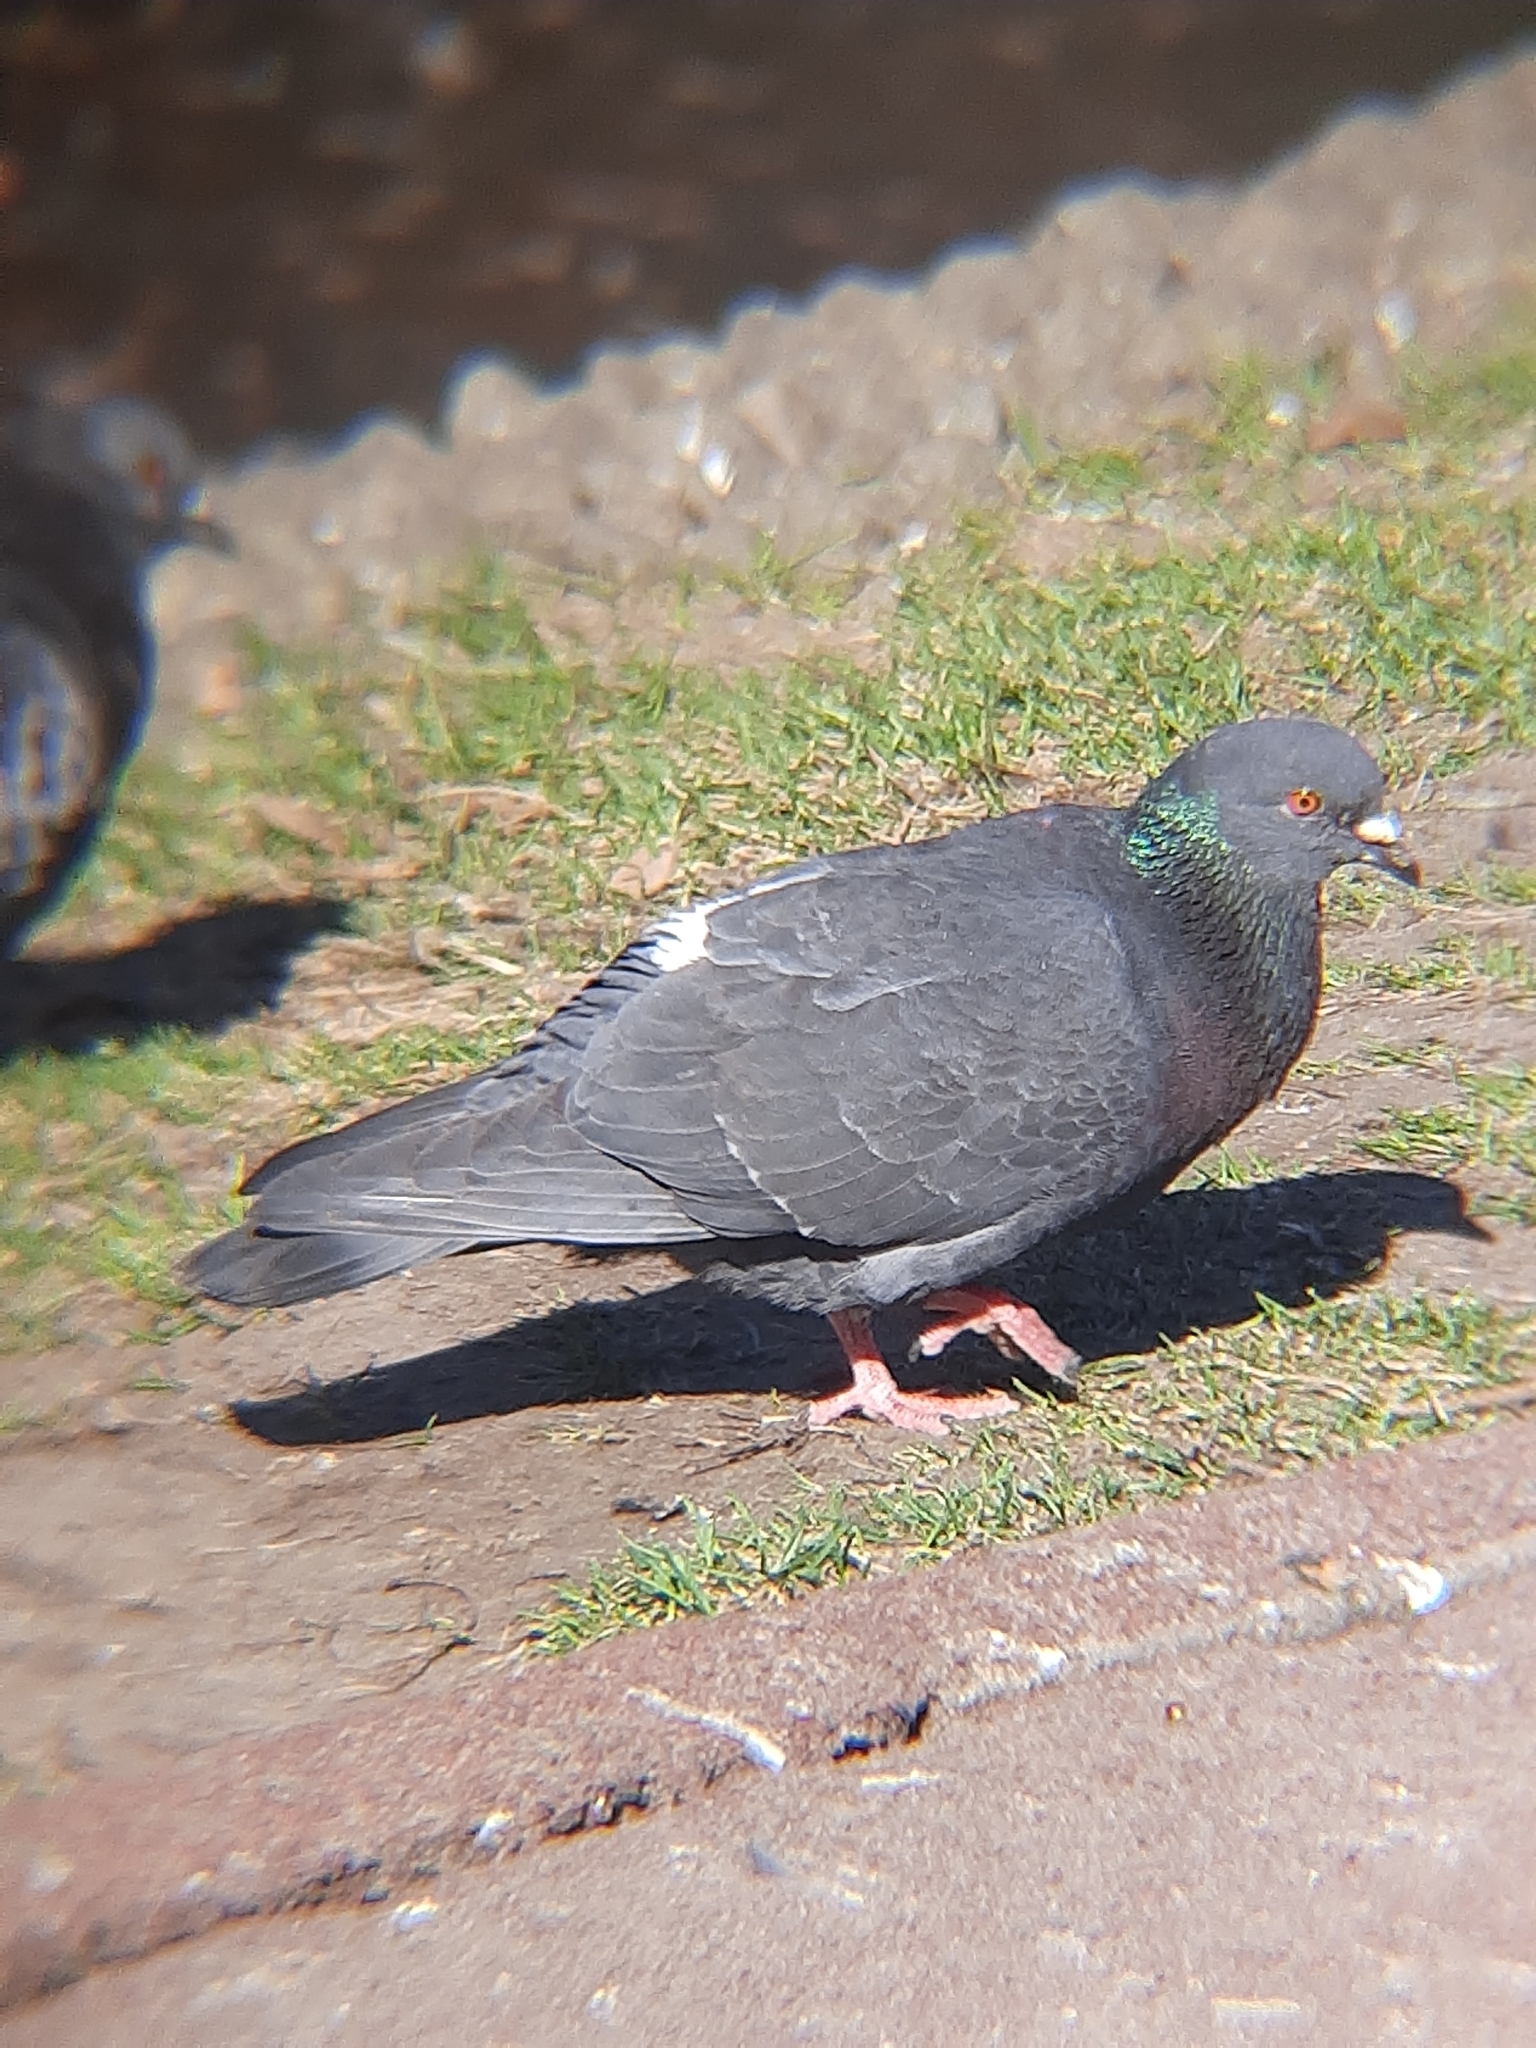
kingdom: Animalia
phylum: Chordata
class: Aves
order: Columbiformes
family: Columbidae
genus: Columba
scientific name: Columba livia
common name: Rock pigeon
